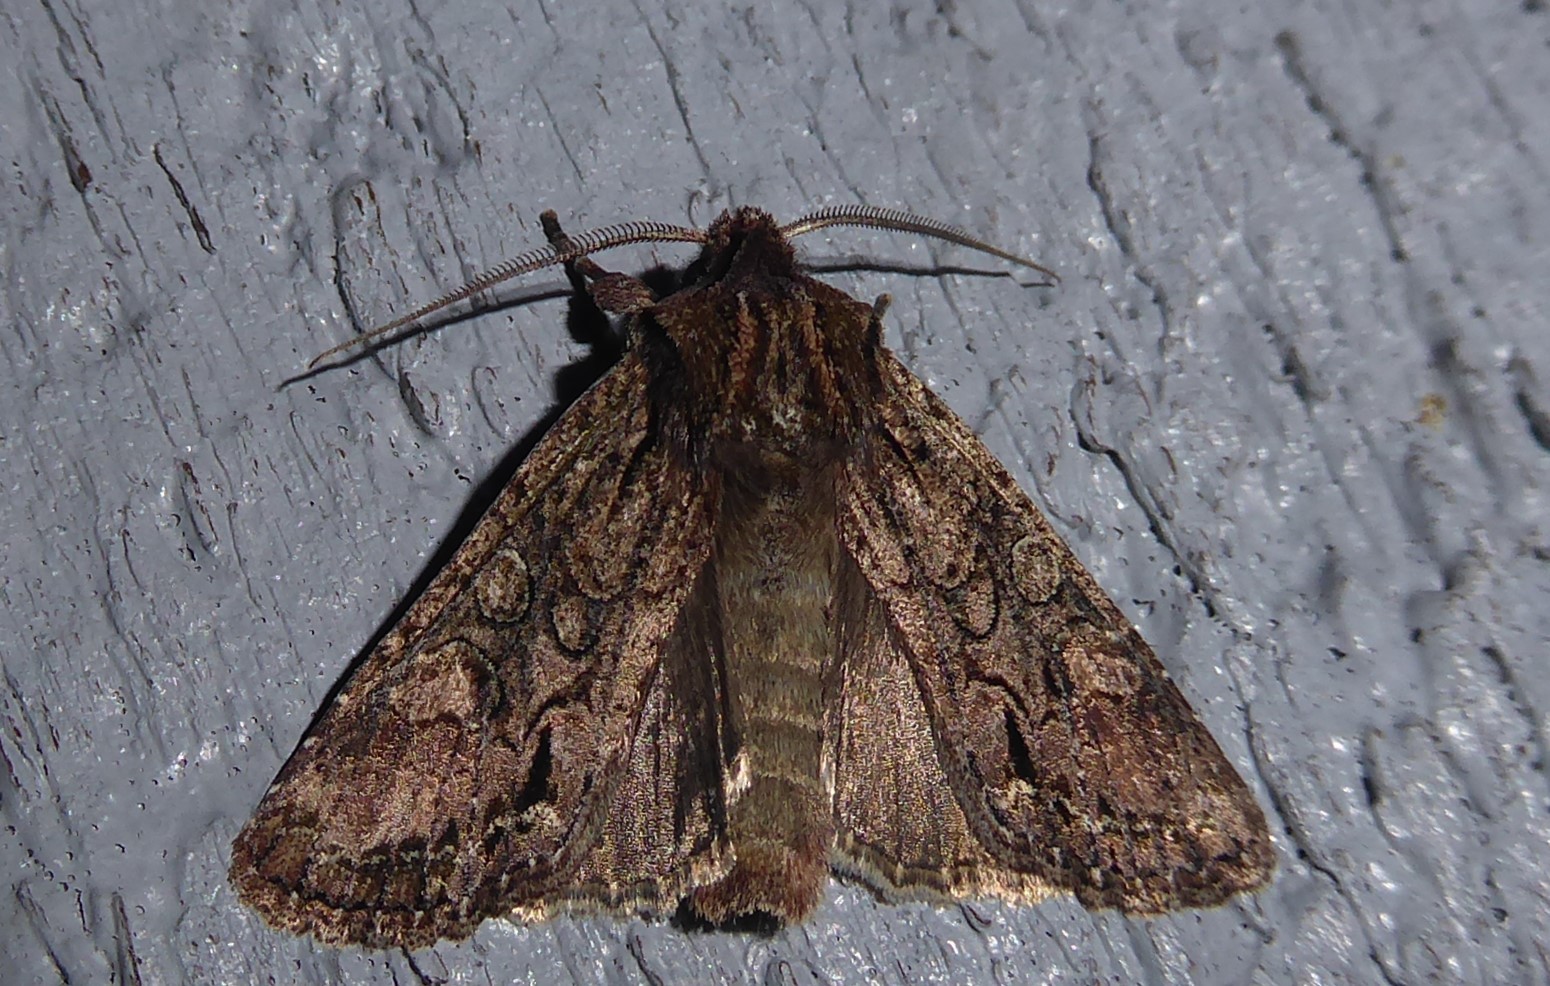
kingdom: Animalia
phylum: Arthropoda
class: Insecta
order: Lepidoptera
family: Noctuidae
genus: Ichneutica
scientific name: Ichneutica mutans
